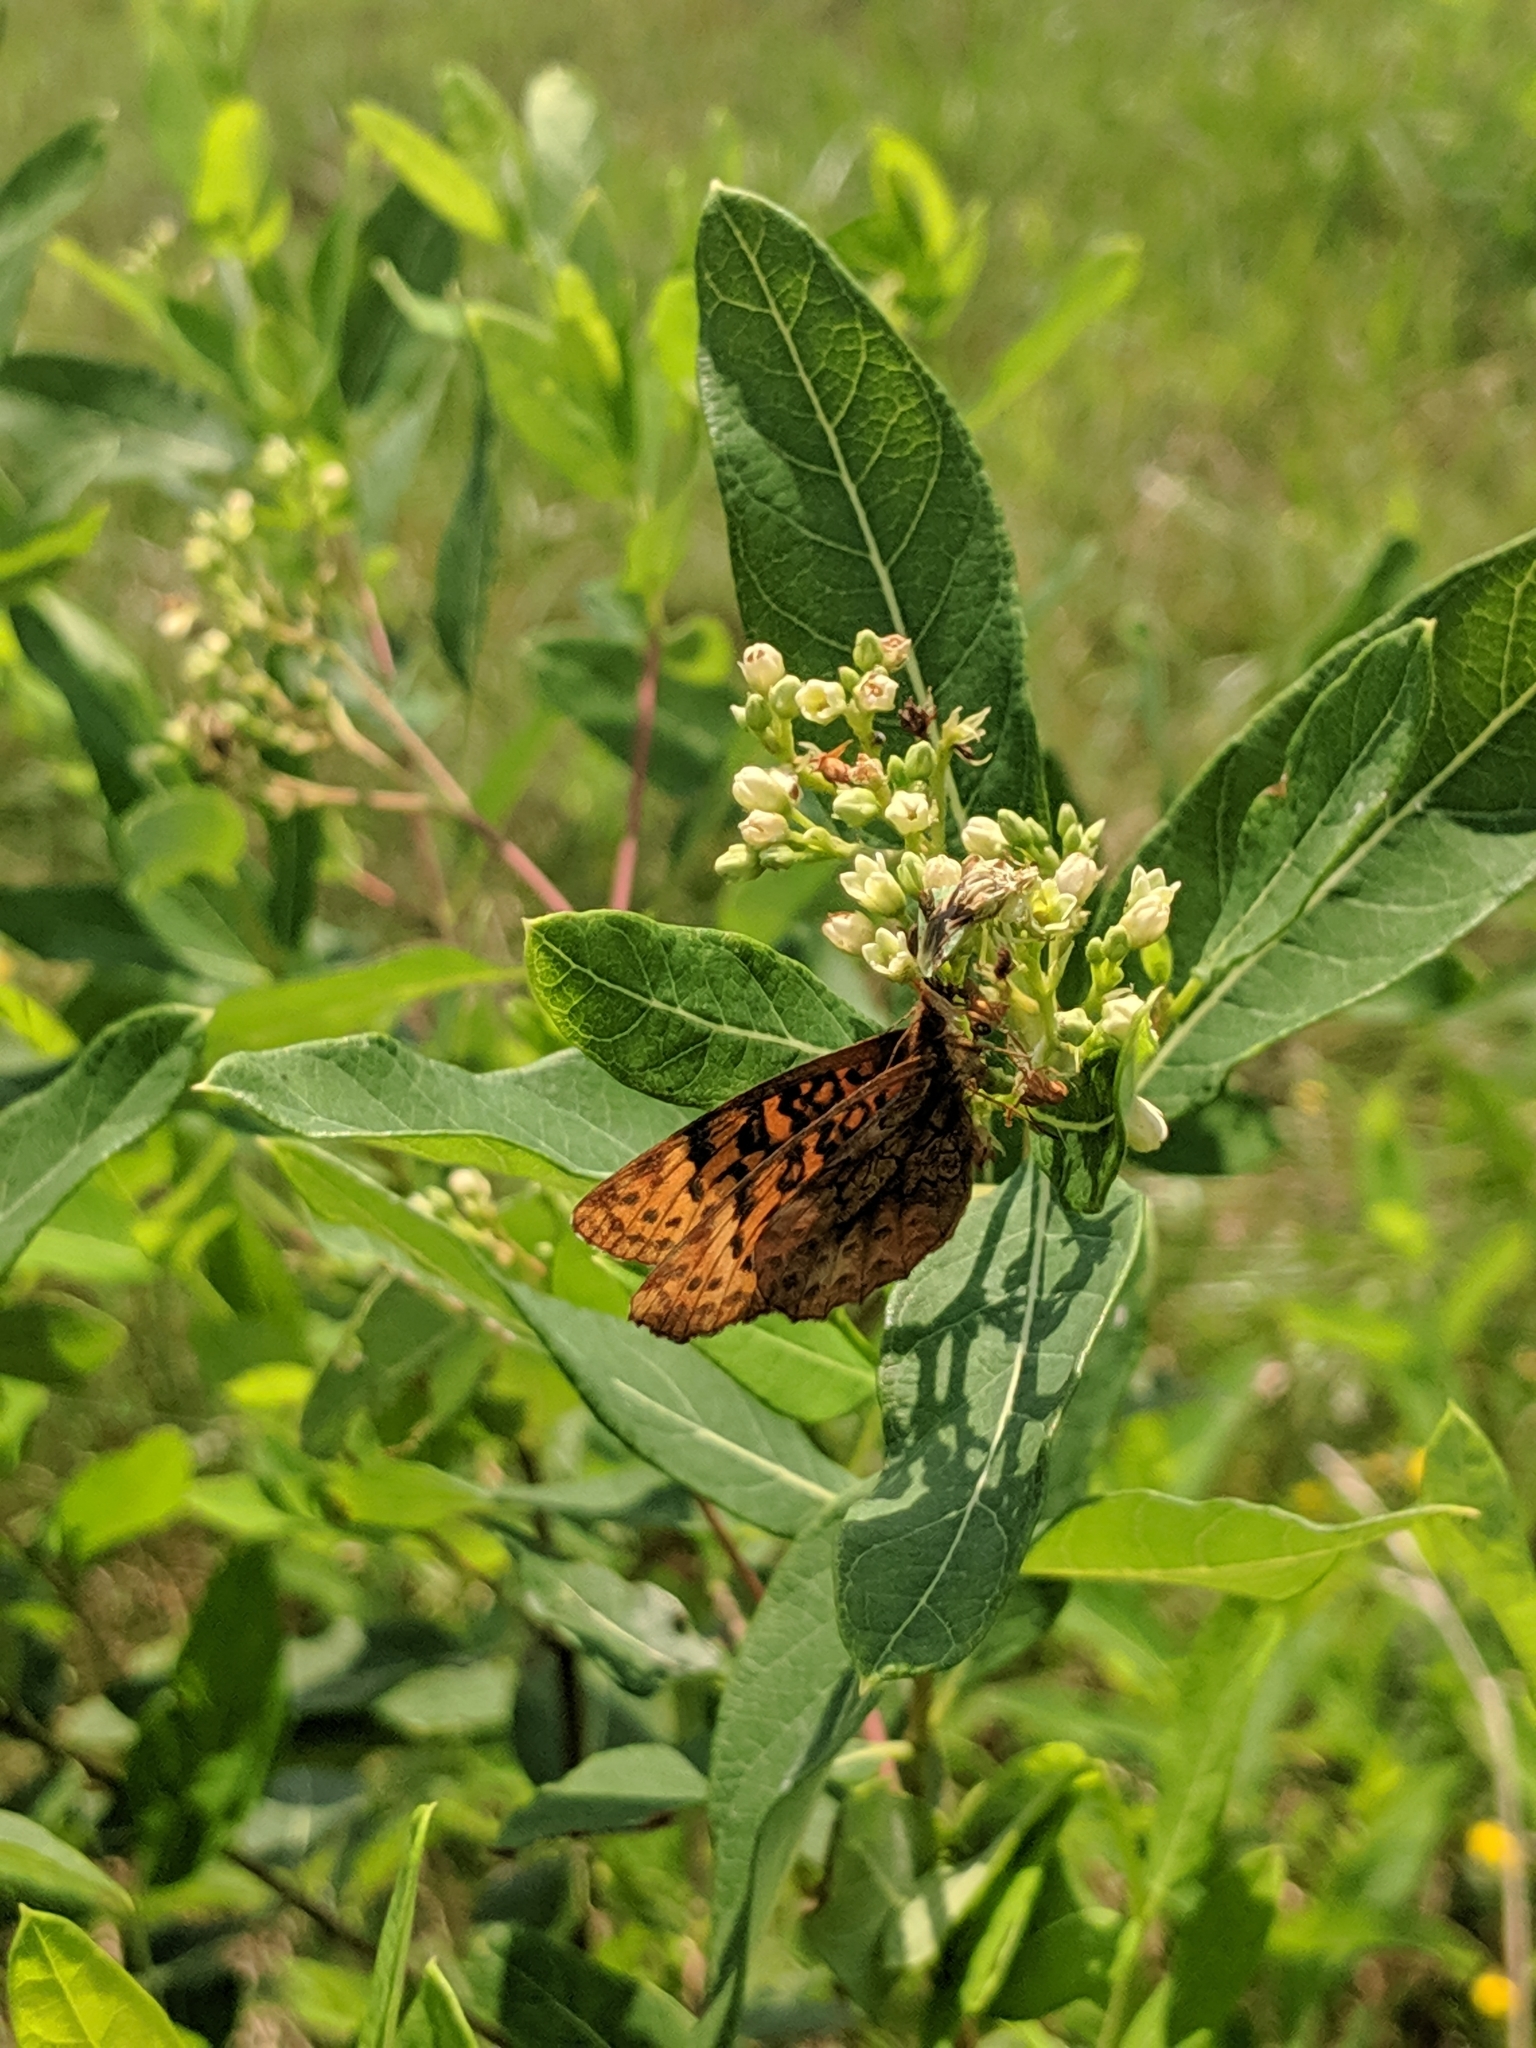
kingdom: Animalia
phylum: Arthropoda
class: Insecta
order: Lepidoptera
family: Nymphalidae
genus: Clossiana
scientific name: Clossiana toddi
